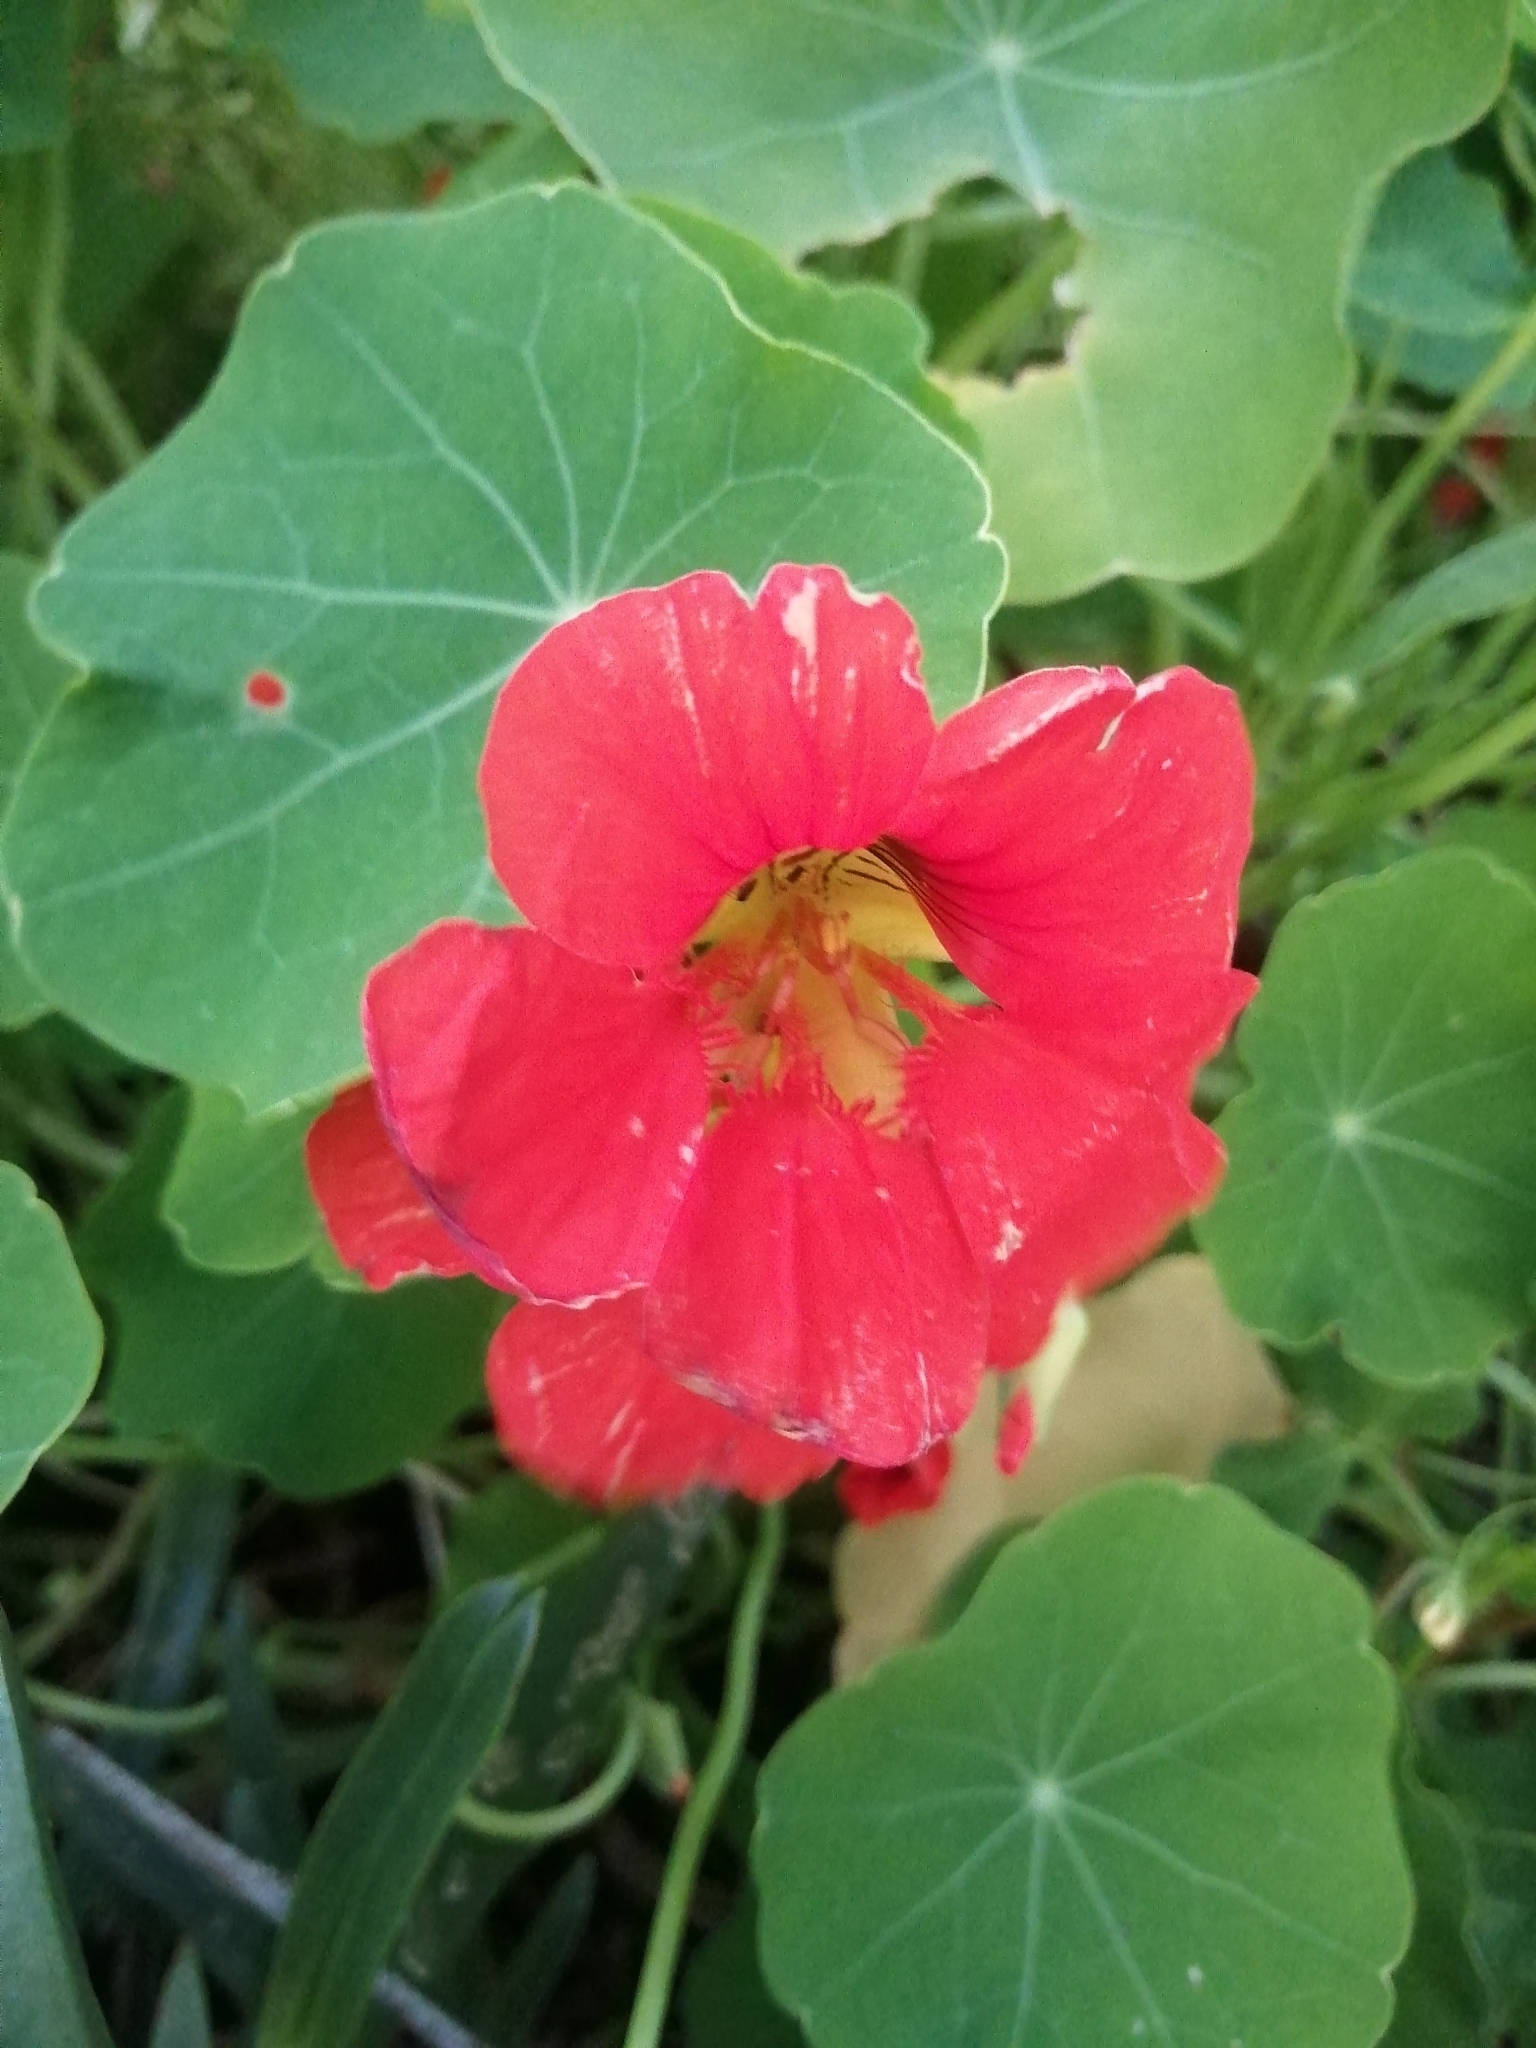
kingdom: Plantae
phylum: Tracheophyta
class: Magnoliopsida
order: Brassicales
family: Tropaeolaceae
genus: Tropaeolum
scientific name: Tropaeolum majus
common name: Nasturtium
